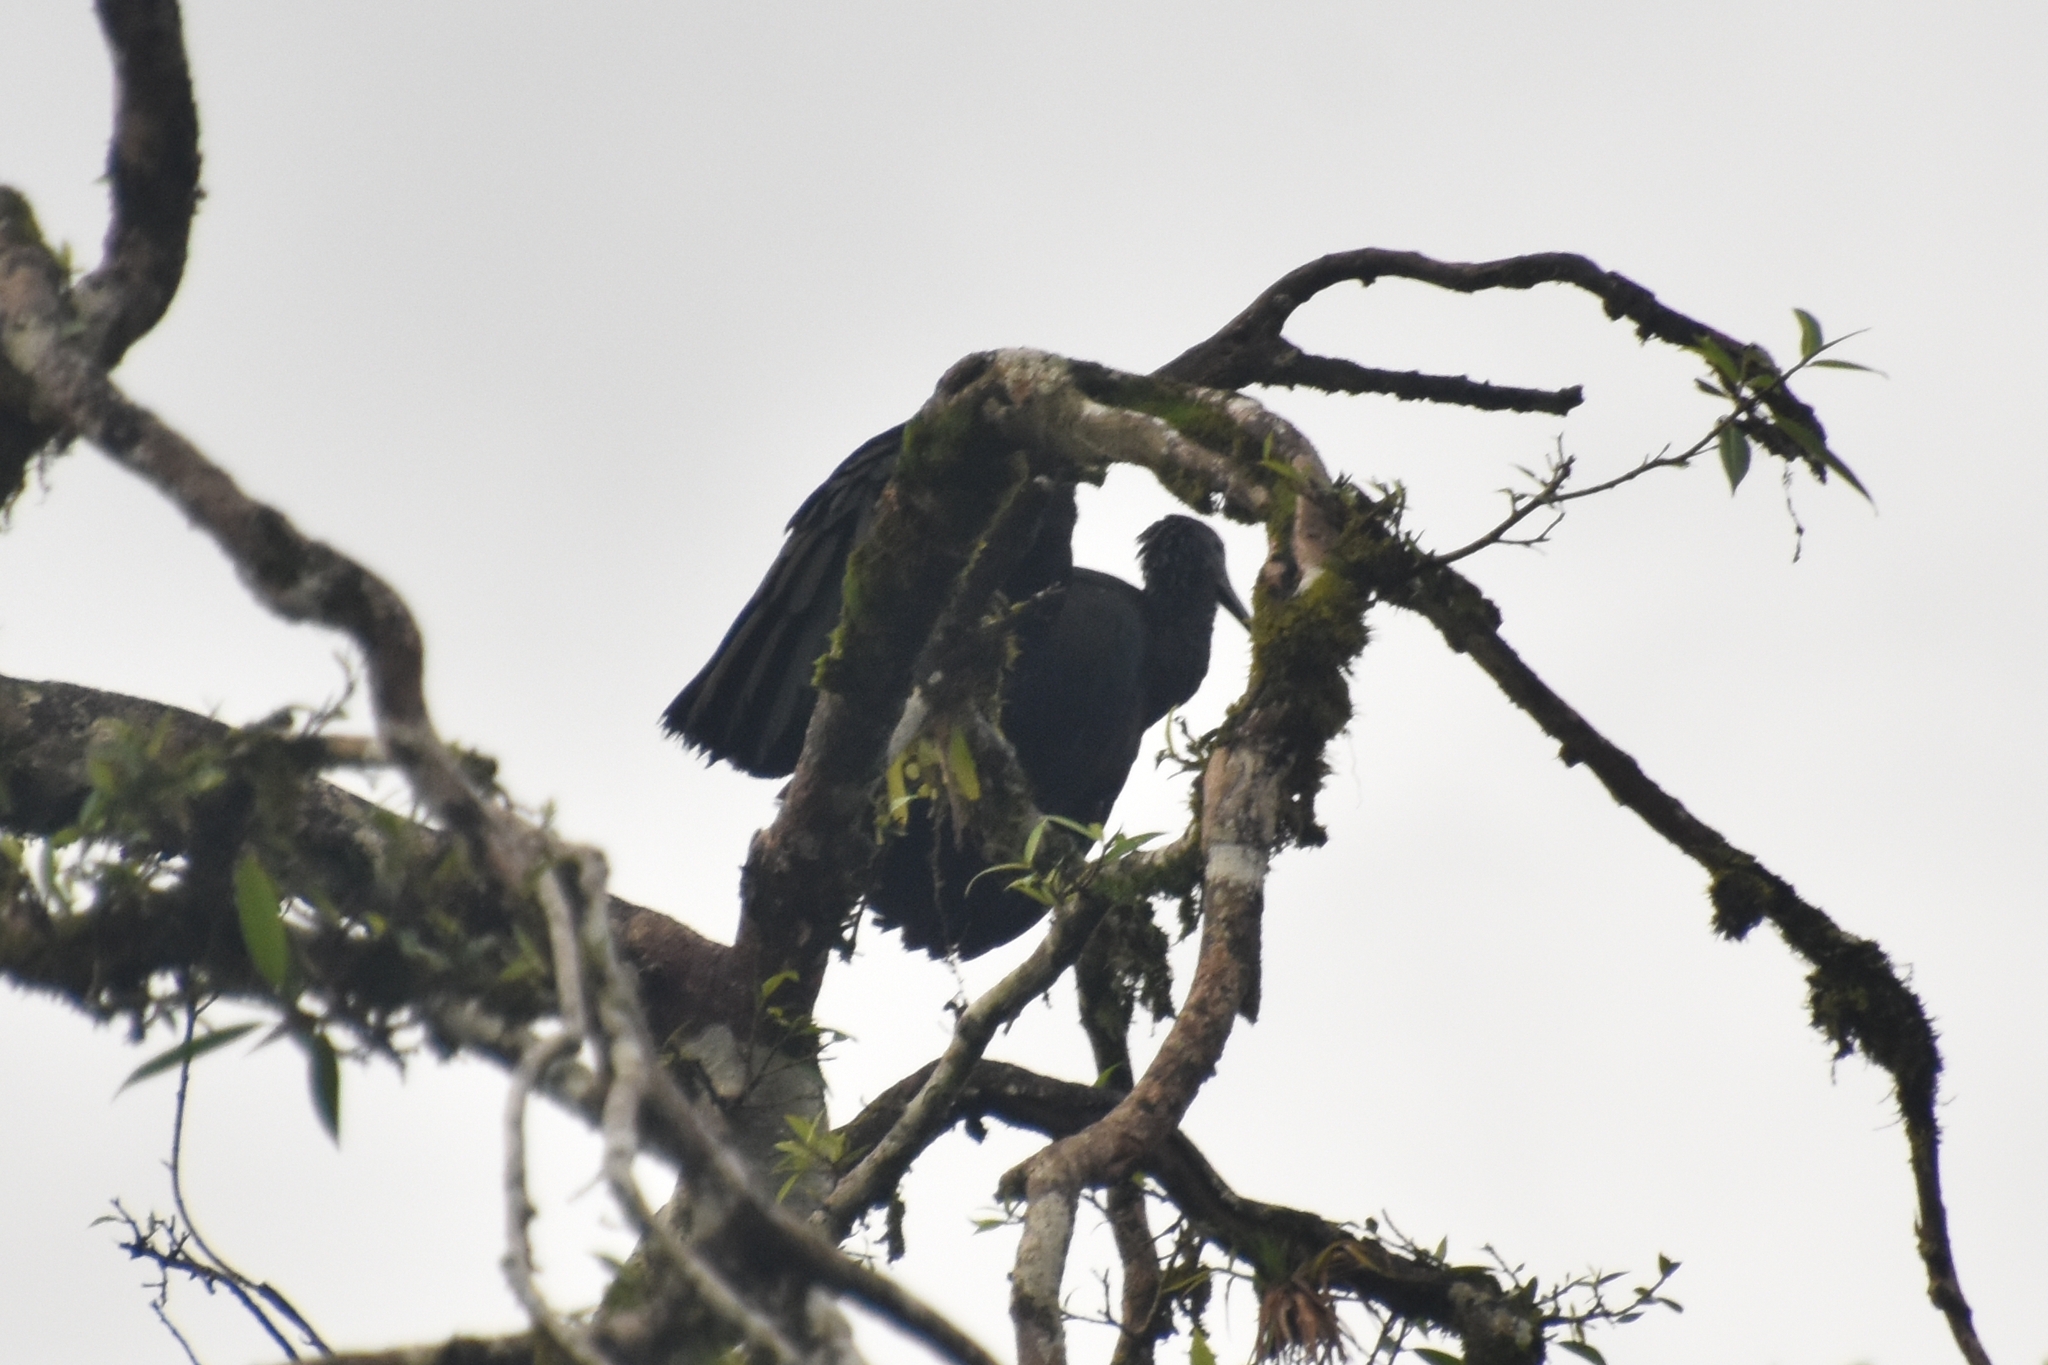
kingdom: Animalia
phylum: Chordata
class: Aves
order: Pelecaniformes
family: Threskiornithidae
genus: Mesembrinibis
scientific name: Mesembrinibis cayennensis
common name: Green ibis
